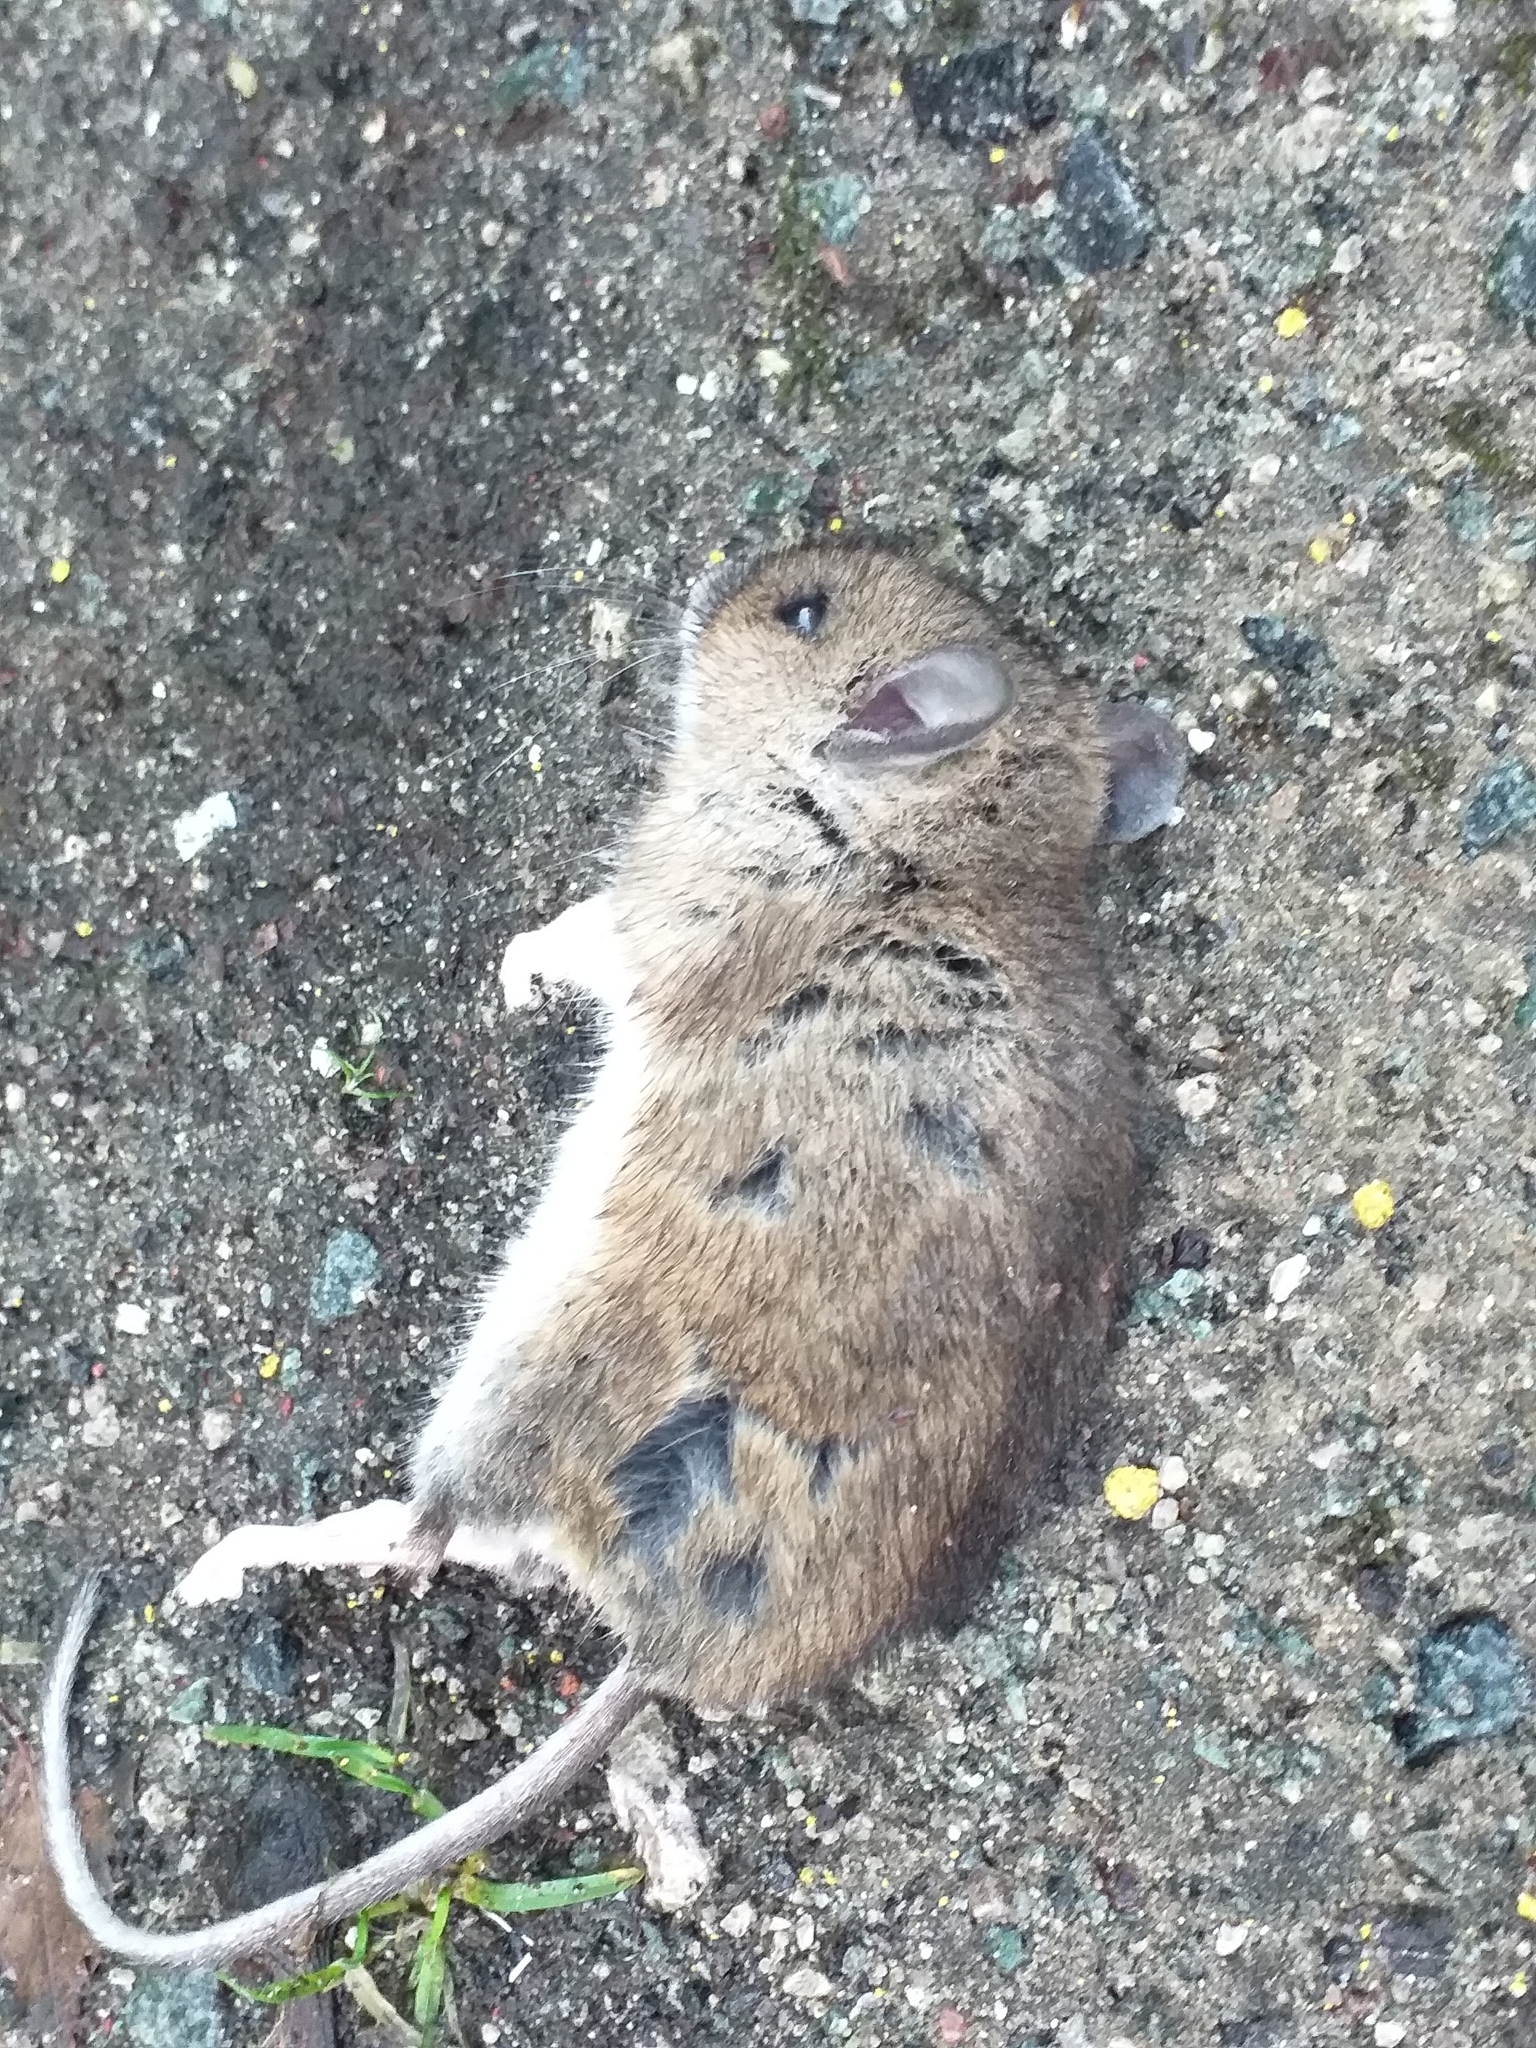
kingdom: Animalia
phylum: Chordata
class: Mammalia
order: Rodentia
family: Muridae
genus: Apodemus
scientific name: Apodemus sylvaticus
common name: Wood mouse
